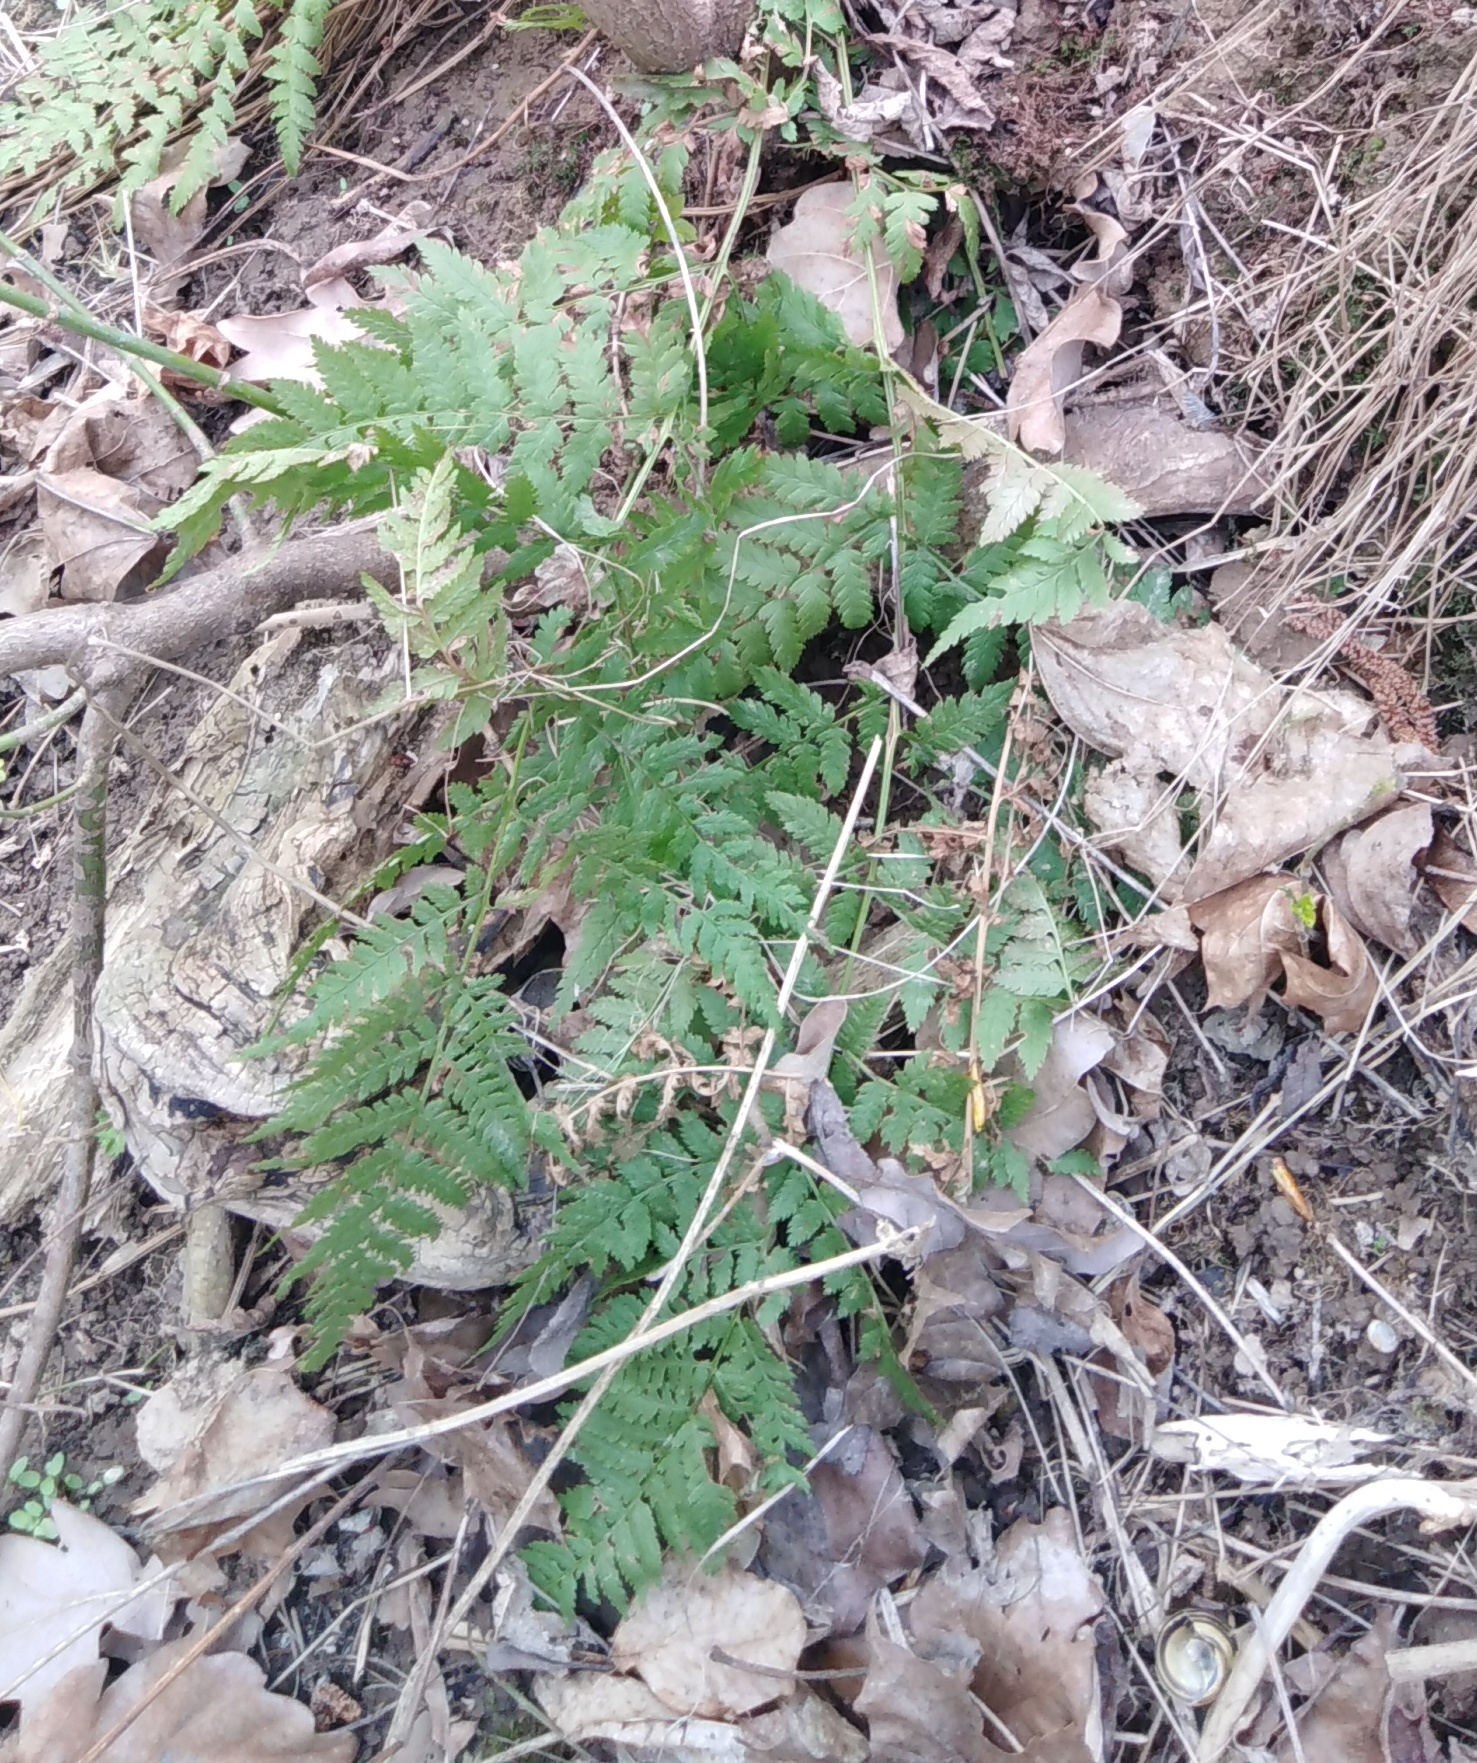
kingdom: Plantae
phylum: Tracheophyta
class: Polypodiopsida
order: Polypodiales
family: Dryopteridaceae
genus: Dryopteris
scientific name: Dryopteris carthusiana
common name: Narrow buckler-fern
